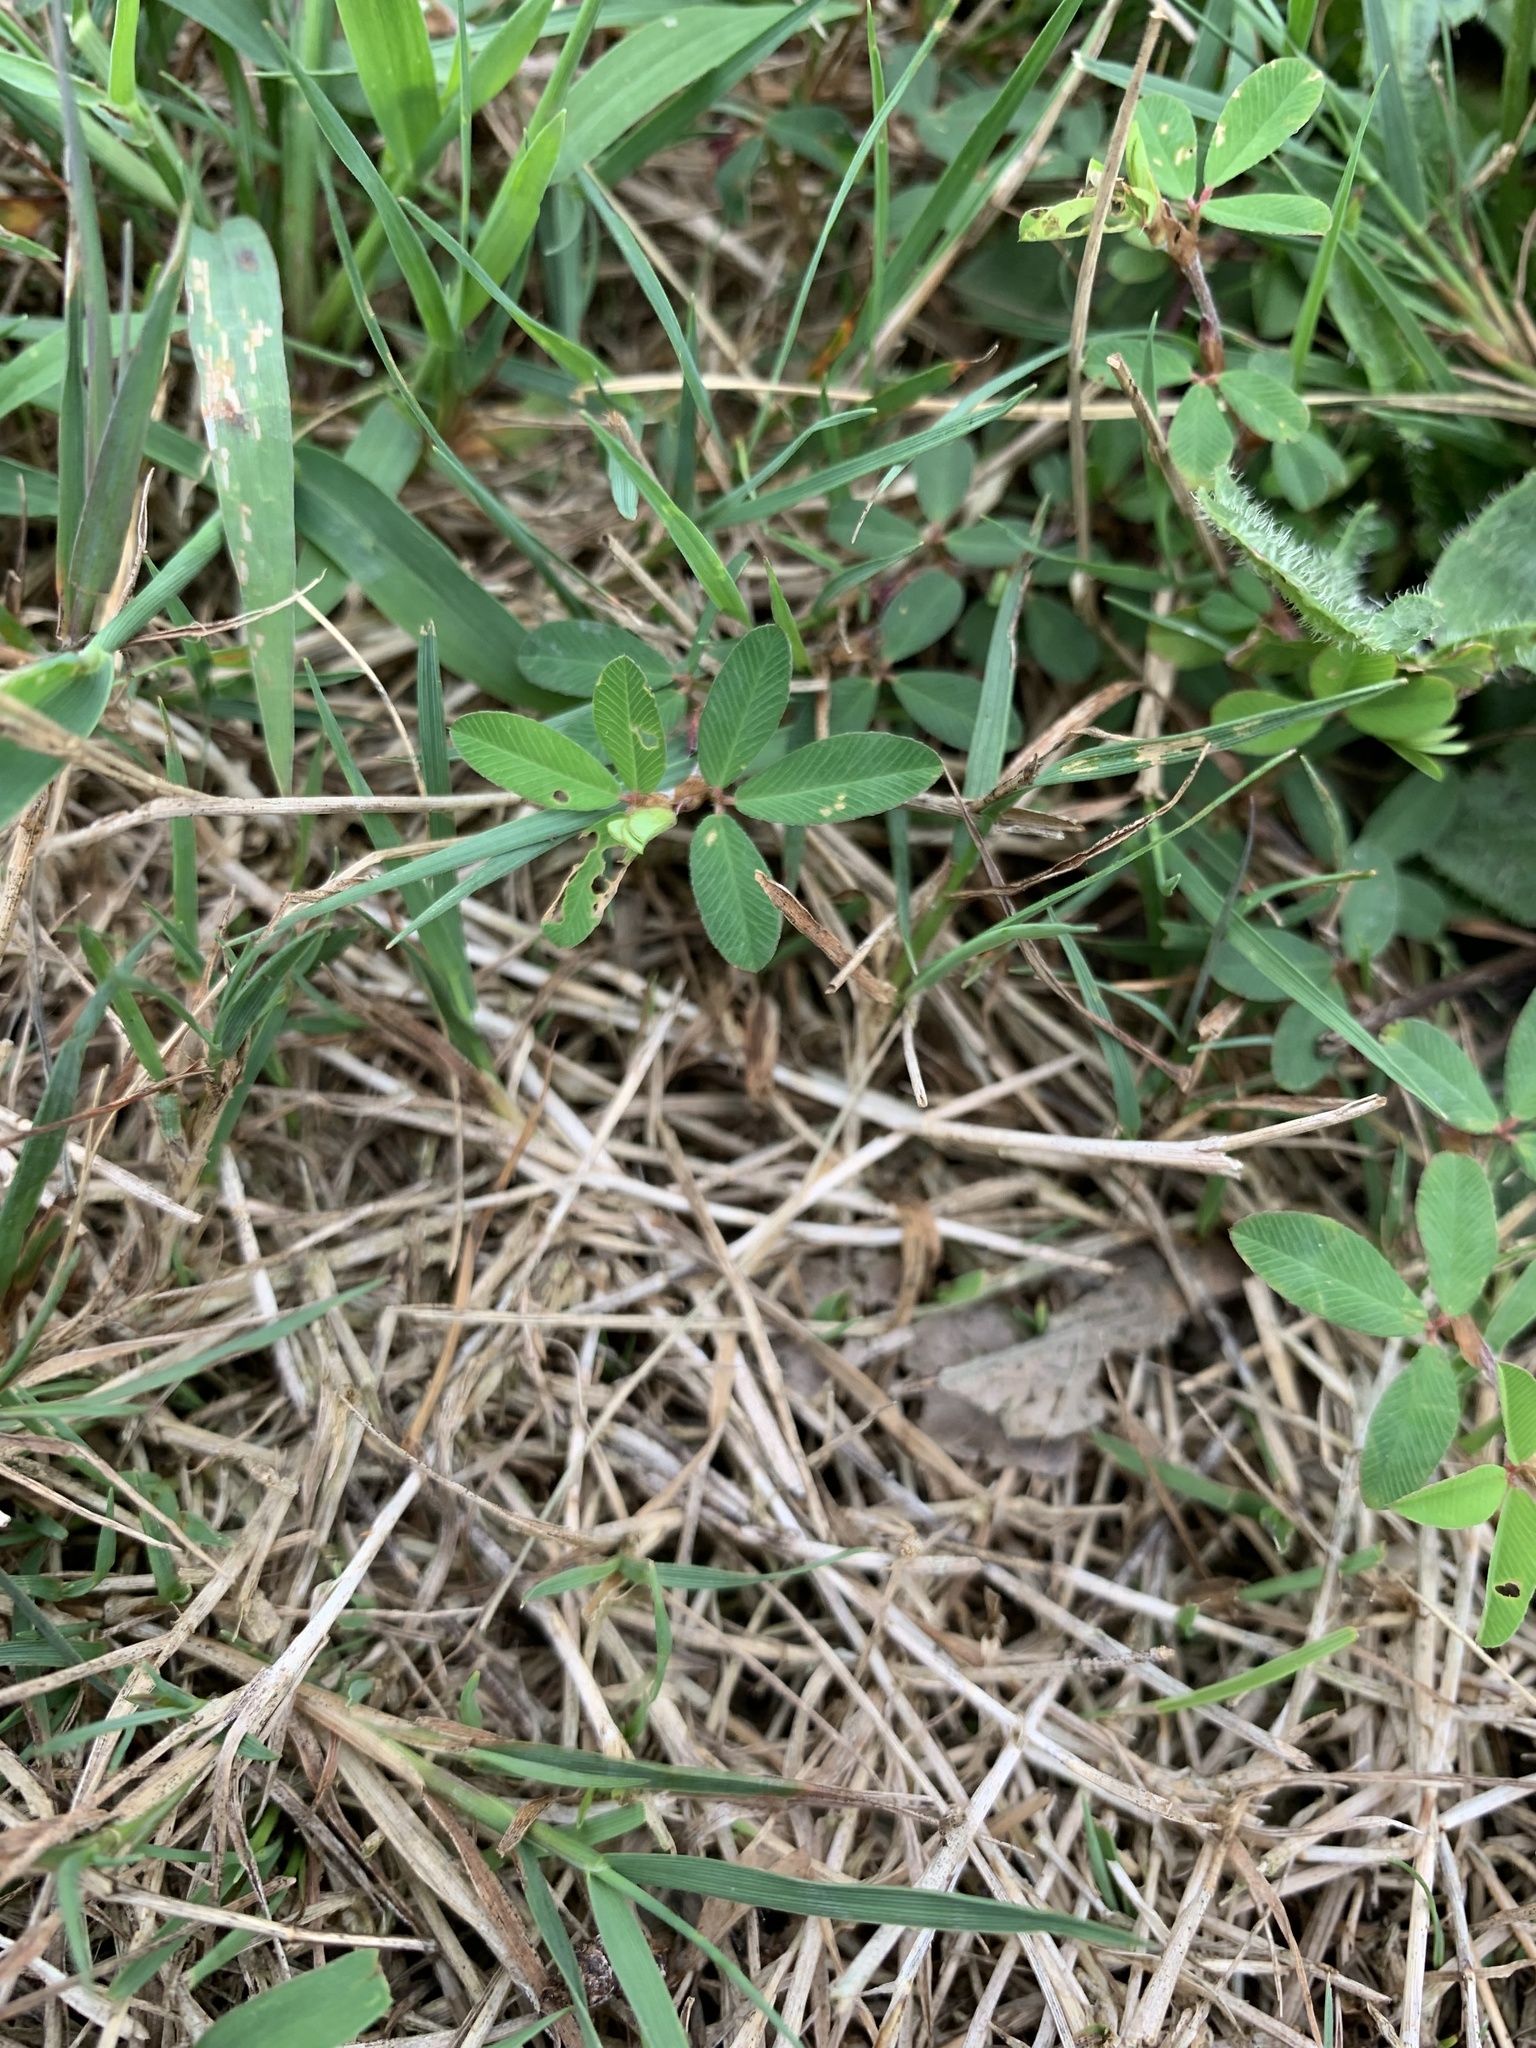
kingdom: Plantae
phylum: Tracheophyta
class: Magnoliopsida
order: Fabales
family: Fabaceae
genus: Kummerowia
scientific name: Kummerowia striata
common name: Japanese clover
